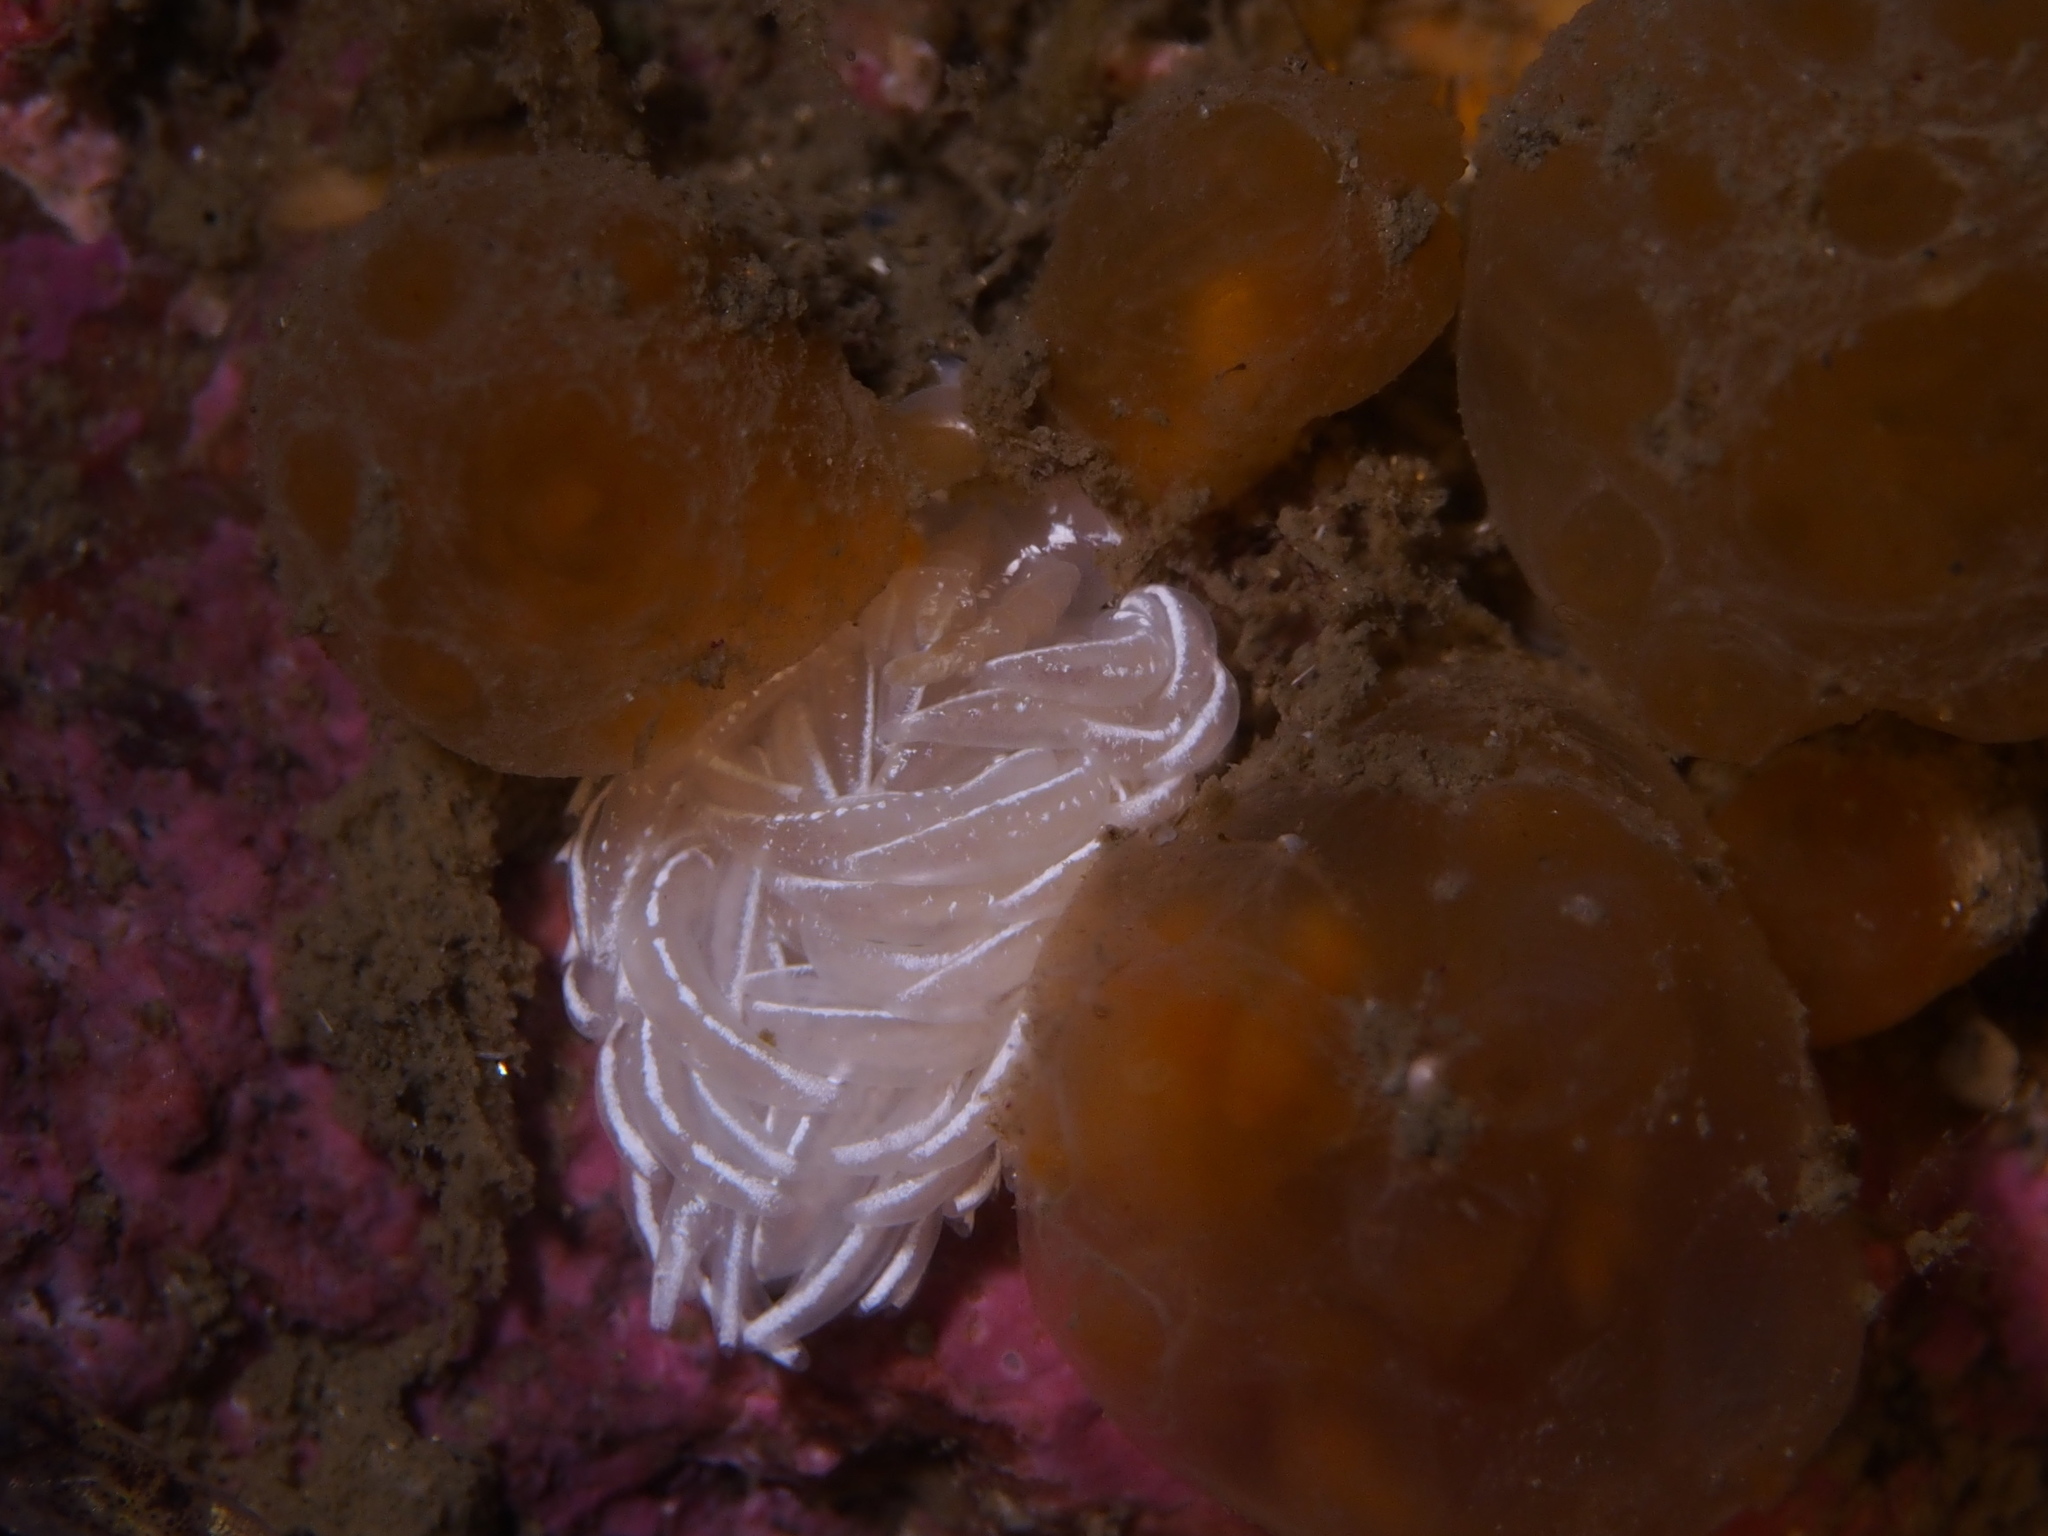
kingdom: Animalia
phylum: Mollusca
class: Gastropoda
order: Nudibranchia
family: Facelinidae
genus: Favorinus
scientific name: Favorinus blianus
